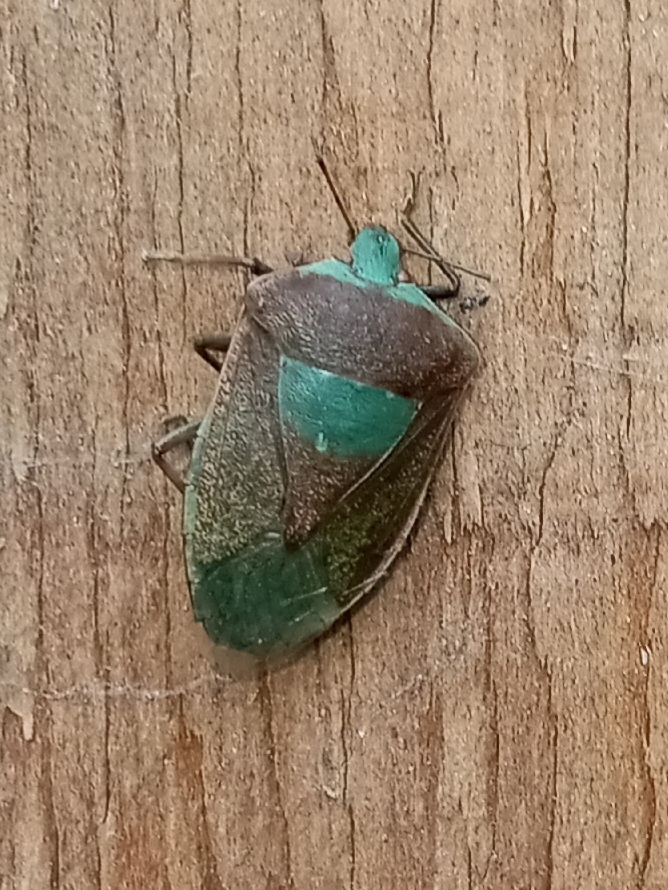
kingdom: Animalia
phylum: Arthropoda
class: Insecta
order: Hemiptera
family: Pentatomidae
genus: Nezara
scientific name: Nezara viridula
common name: Southern green stink bug
